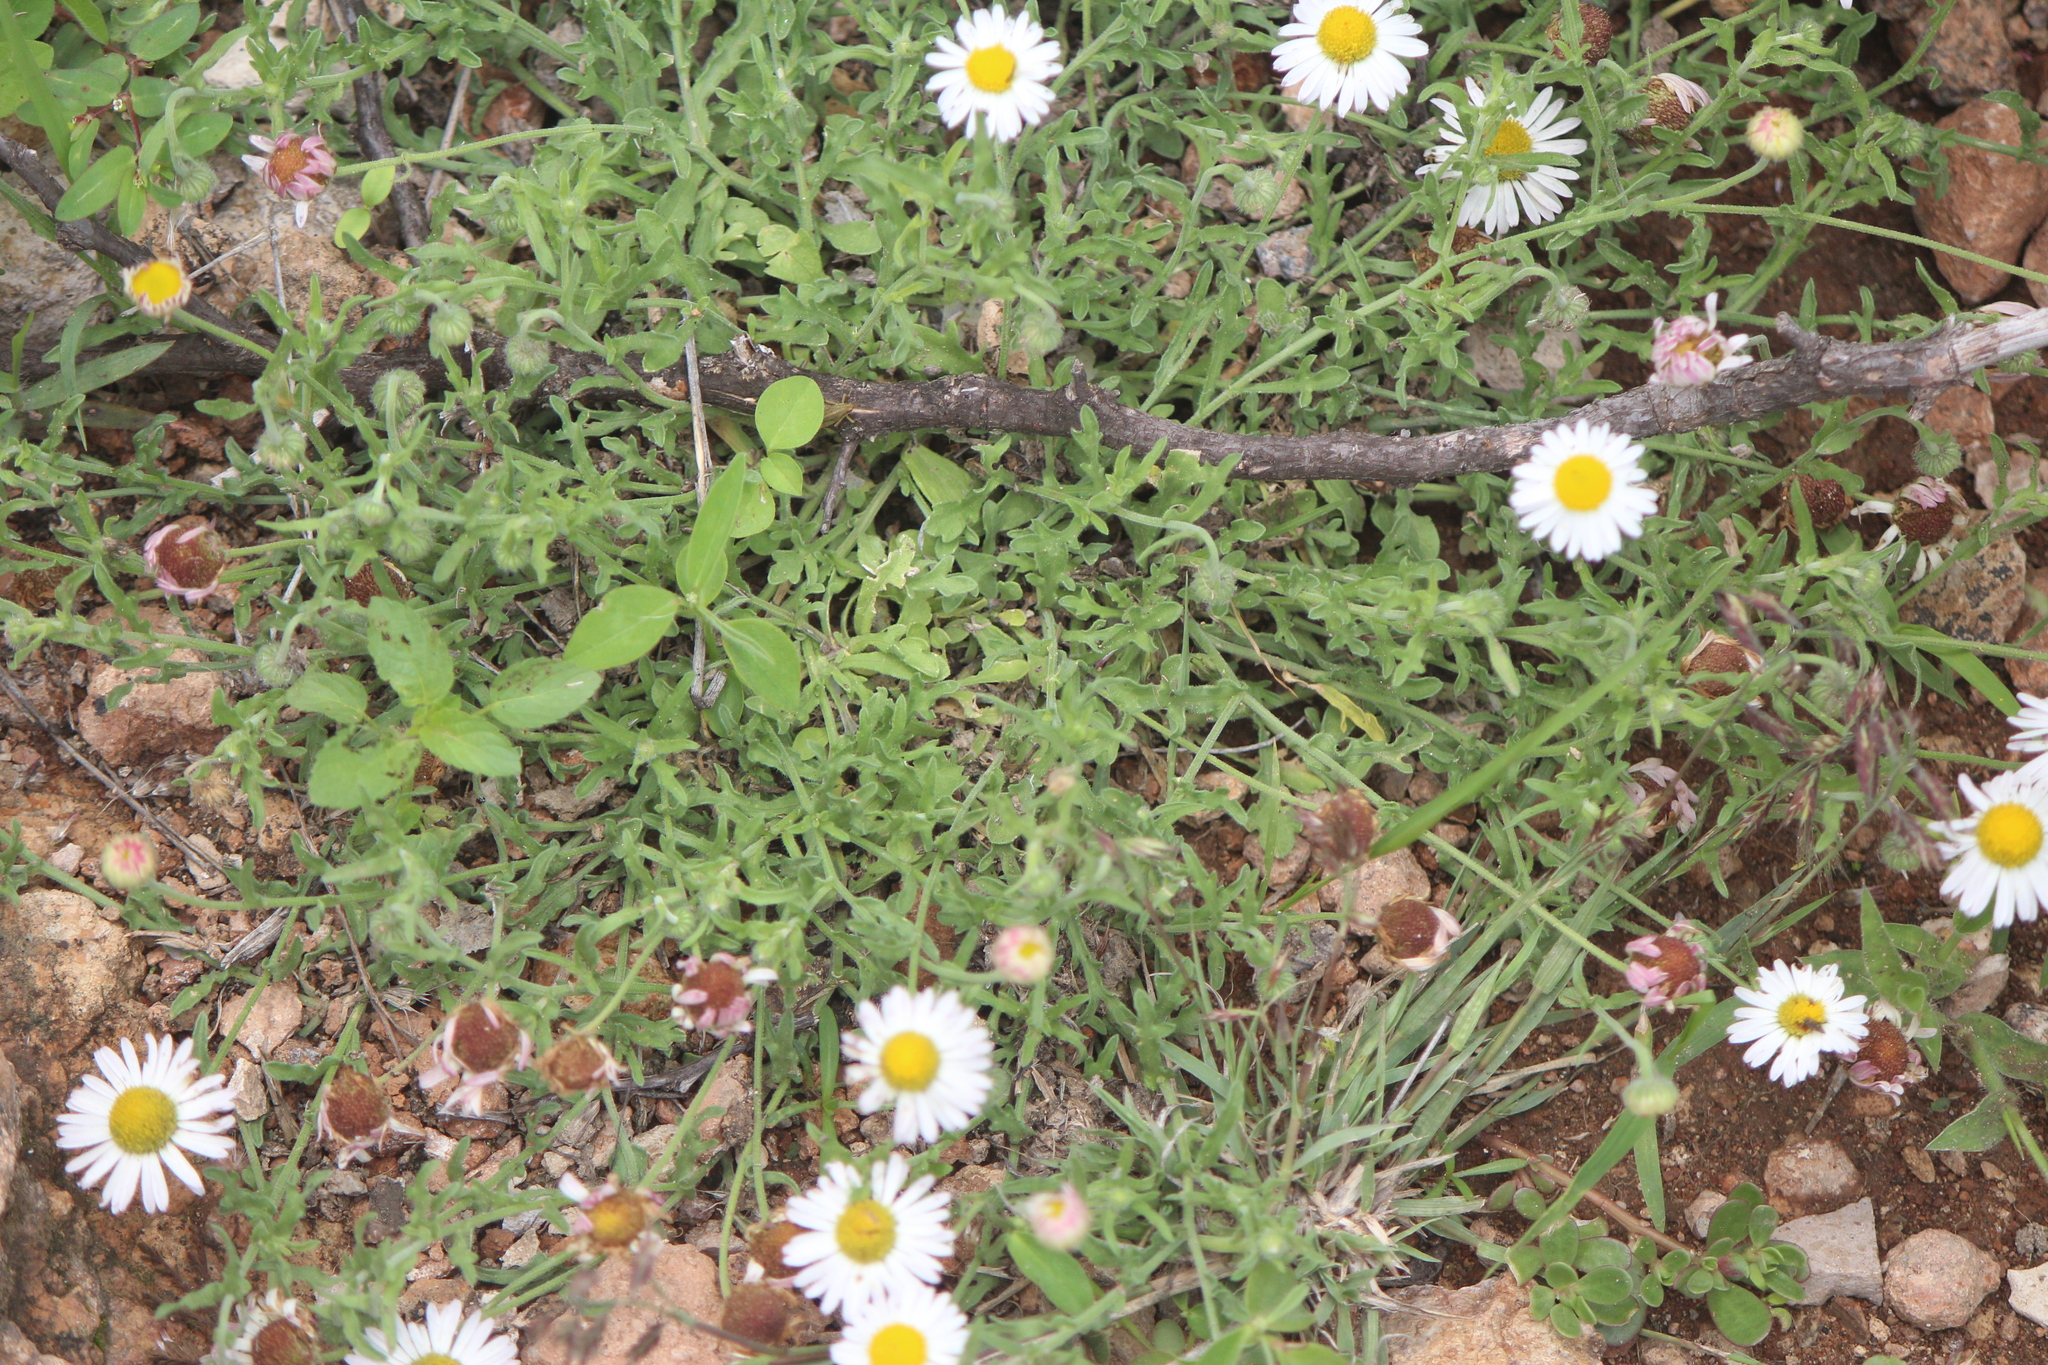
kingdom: Plantae
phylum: Tracheophyta
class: Magnoliopsida
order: Asterales
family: Asteraceae
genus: Aphanostephus
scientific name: Aphanostephus ramosissimus
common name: Plains lazy daisy
